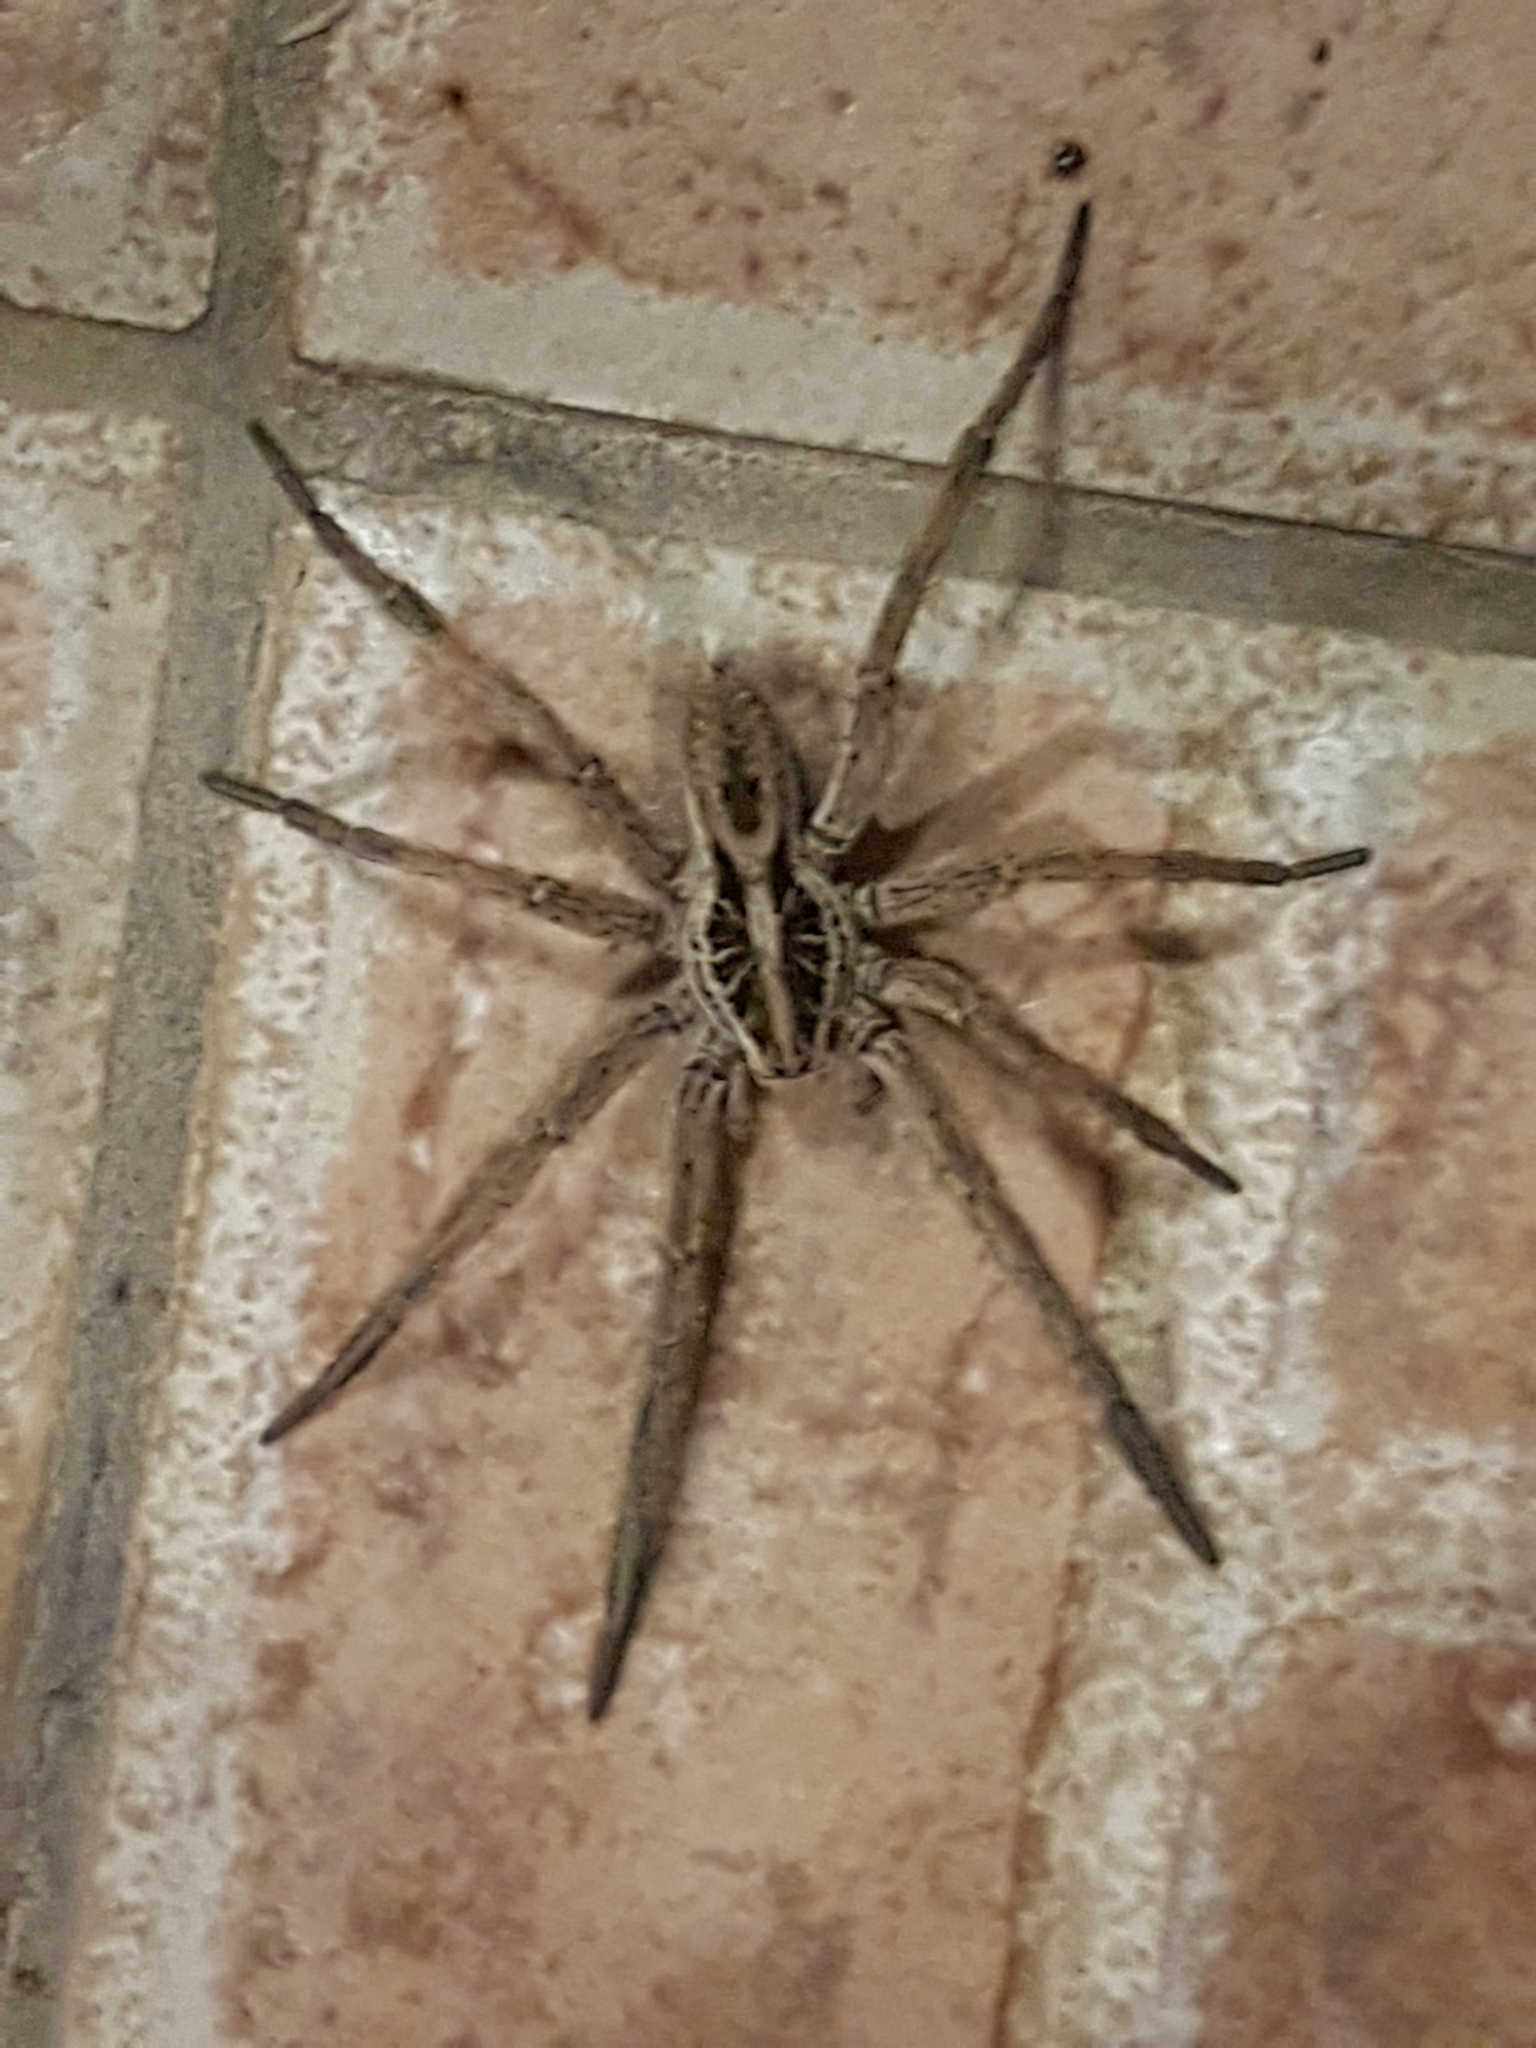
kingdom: Animalia
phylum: Arthropoda
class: Arachnida
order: Araneae
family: Lycosidae
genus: Hogna
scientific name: Hogna radiata
